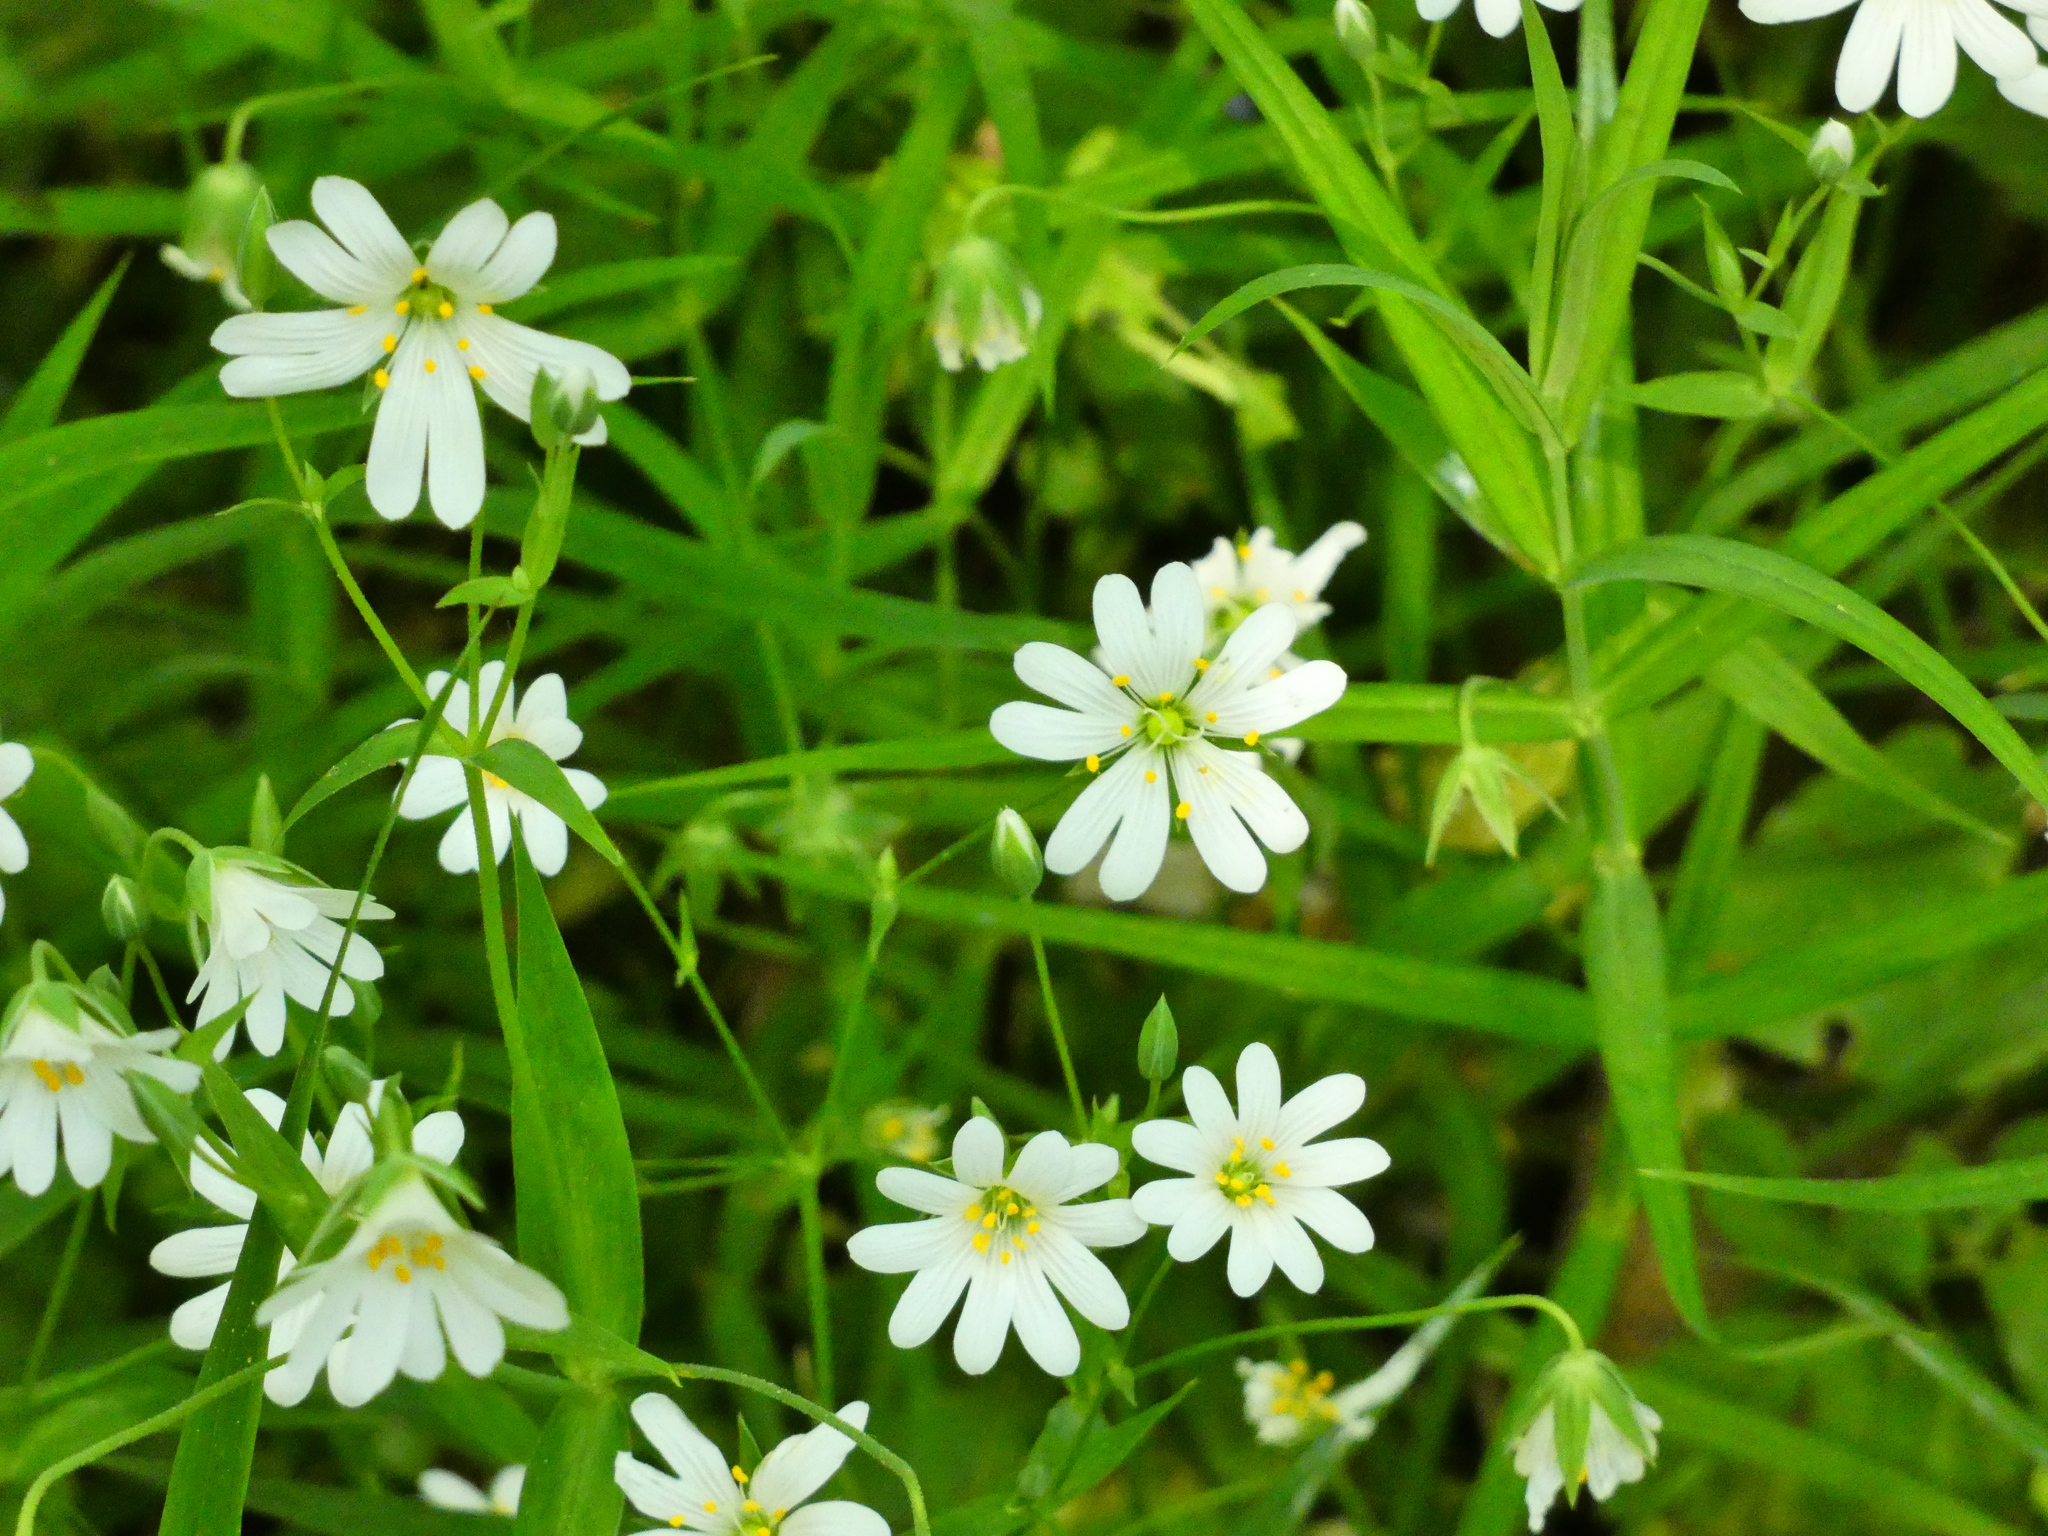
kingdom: Plantae
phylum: Tracheophyta
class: Magnoliopsida
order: Caryophyllales
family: Caryophyllaceae
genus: Rabelera
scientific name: Rabelera holostea
